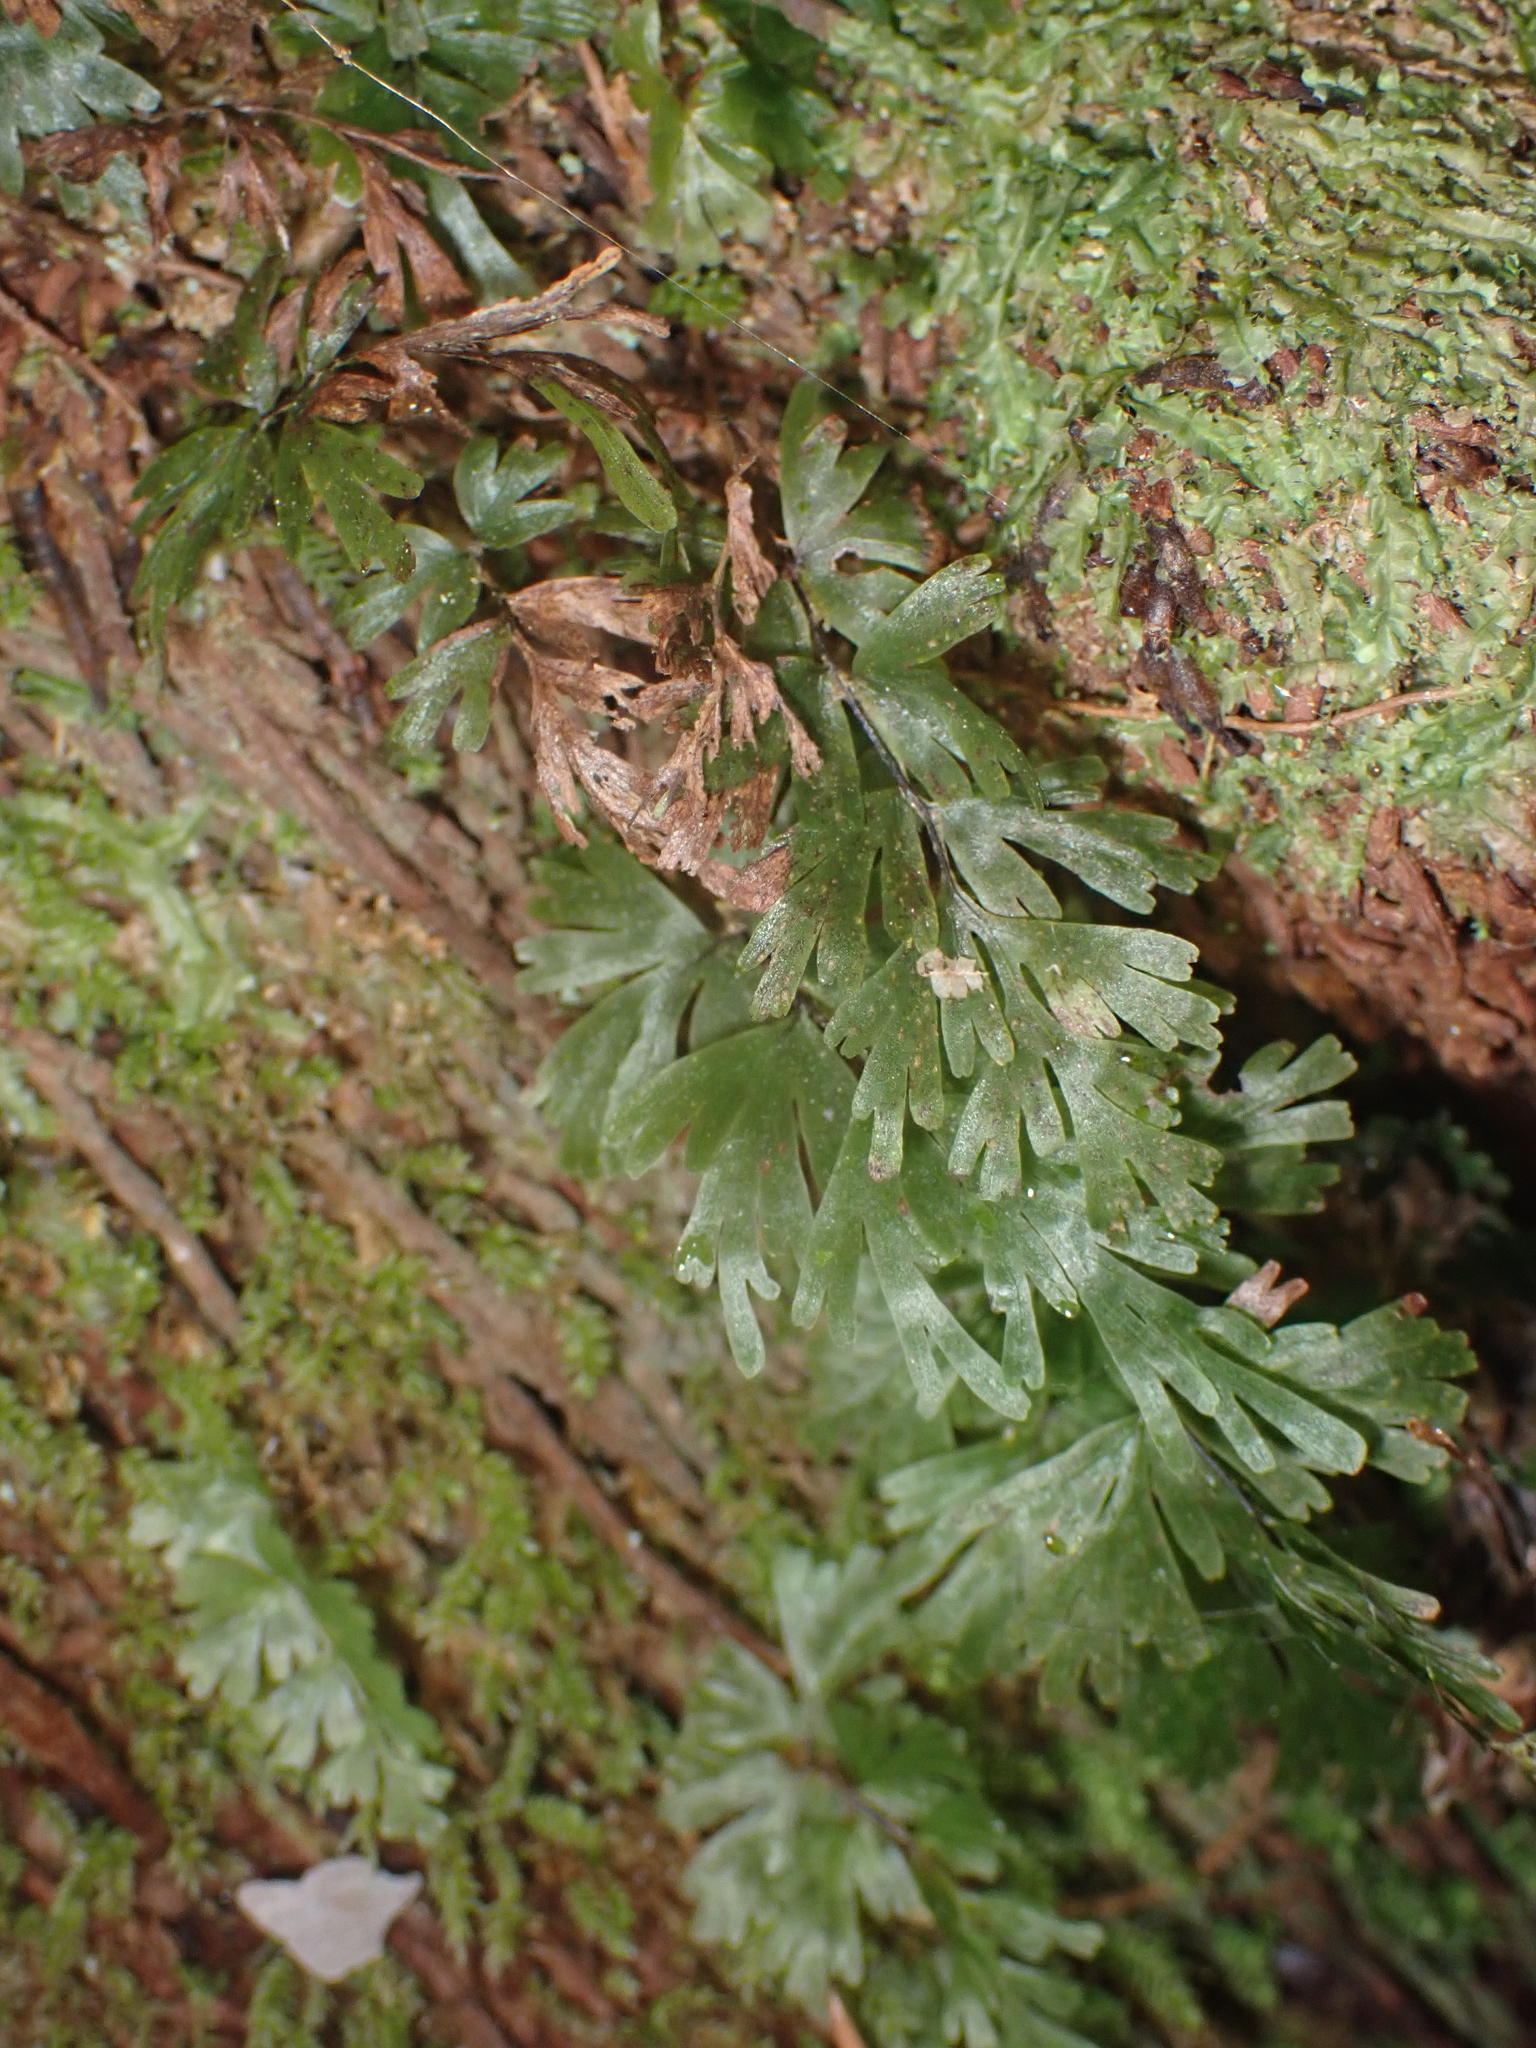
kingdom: Plantae
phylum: Tracheophyta
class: Polypodiopsida
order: Hymenophyllales
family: Hymenophyllaceae
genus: Hymenophyllum
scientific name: Hymenophyllum flabellatum
